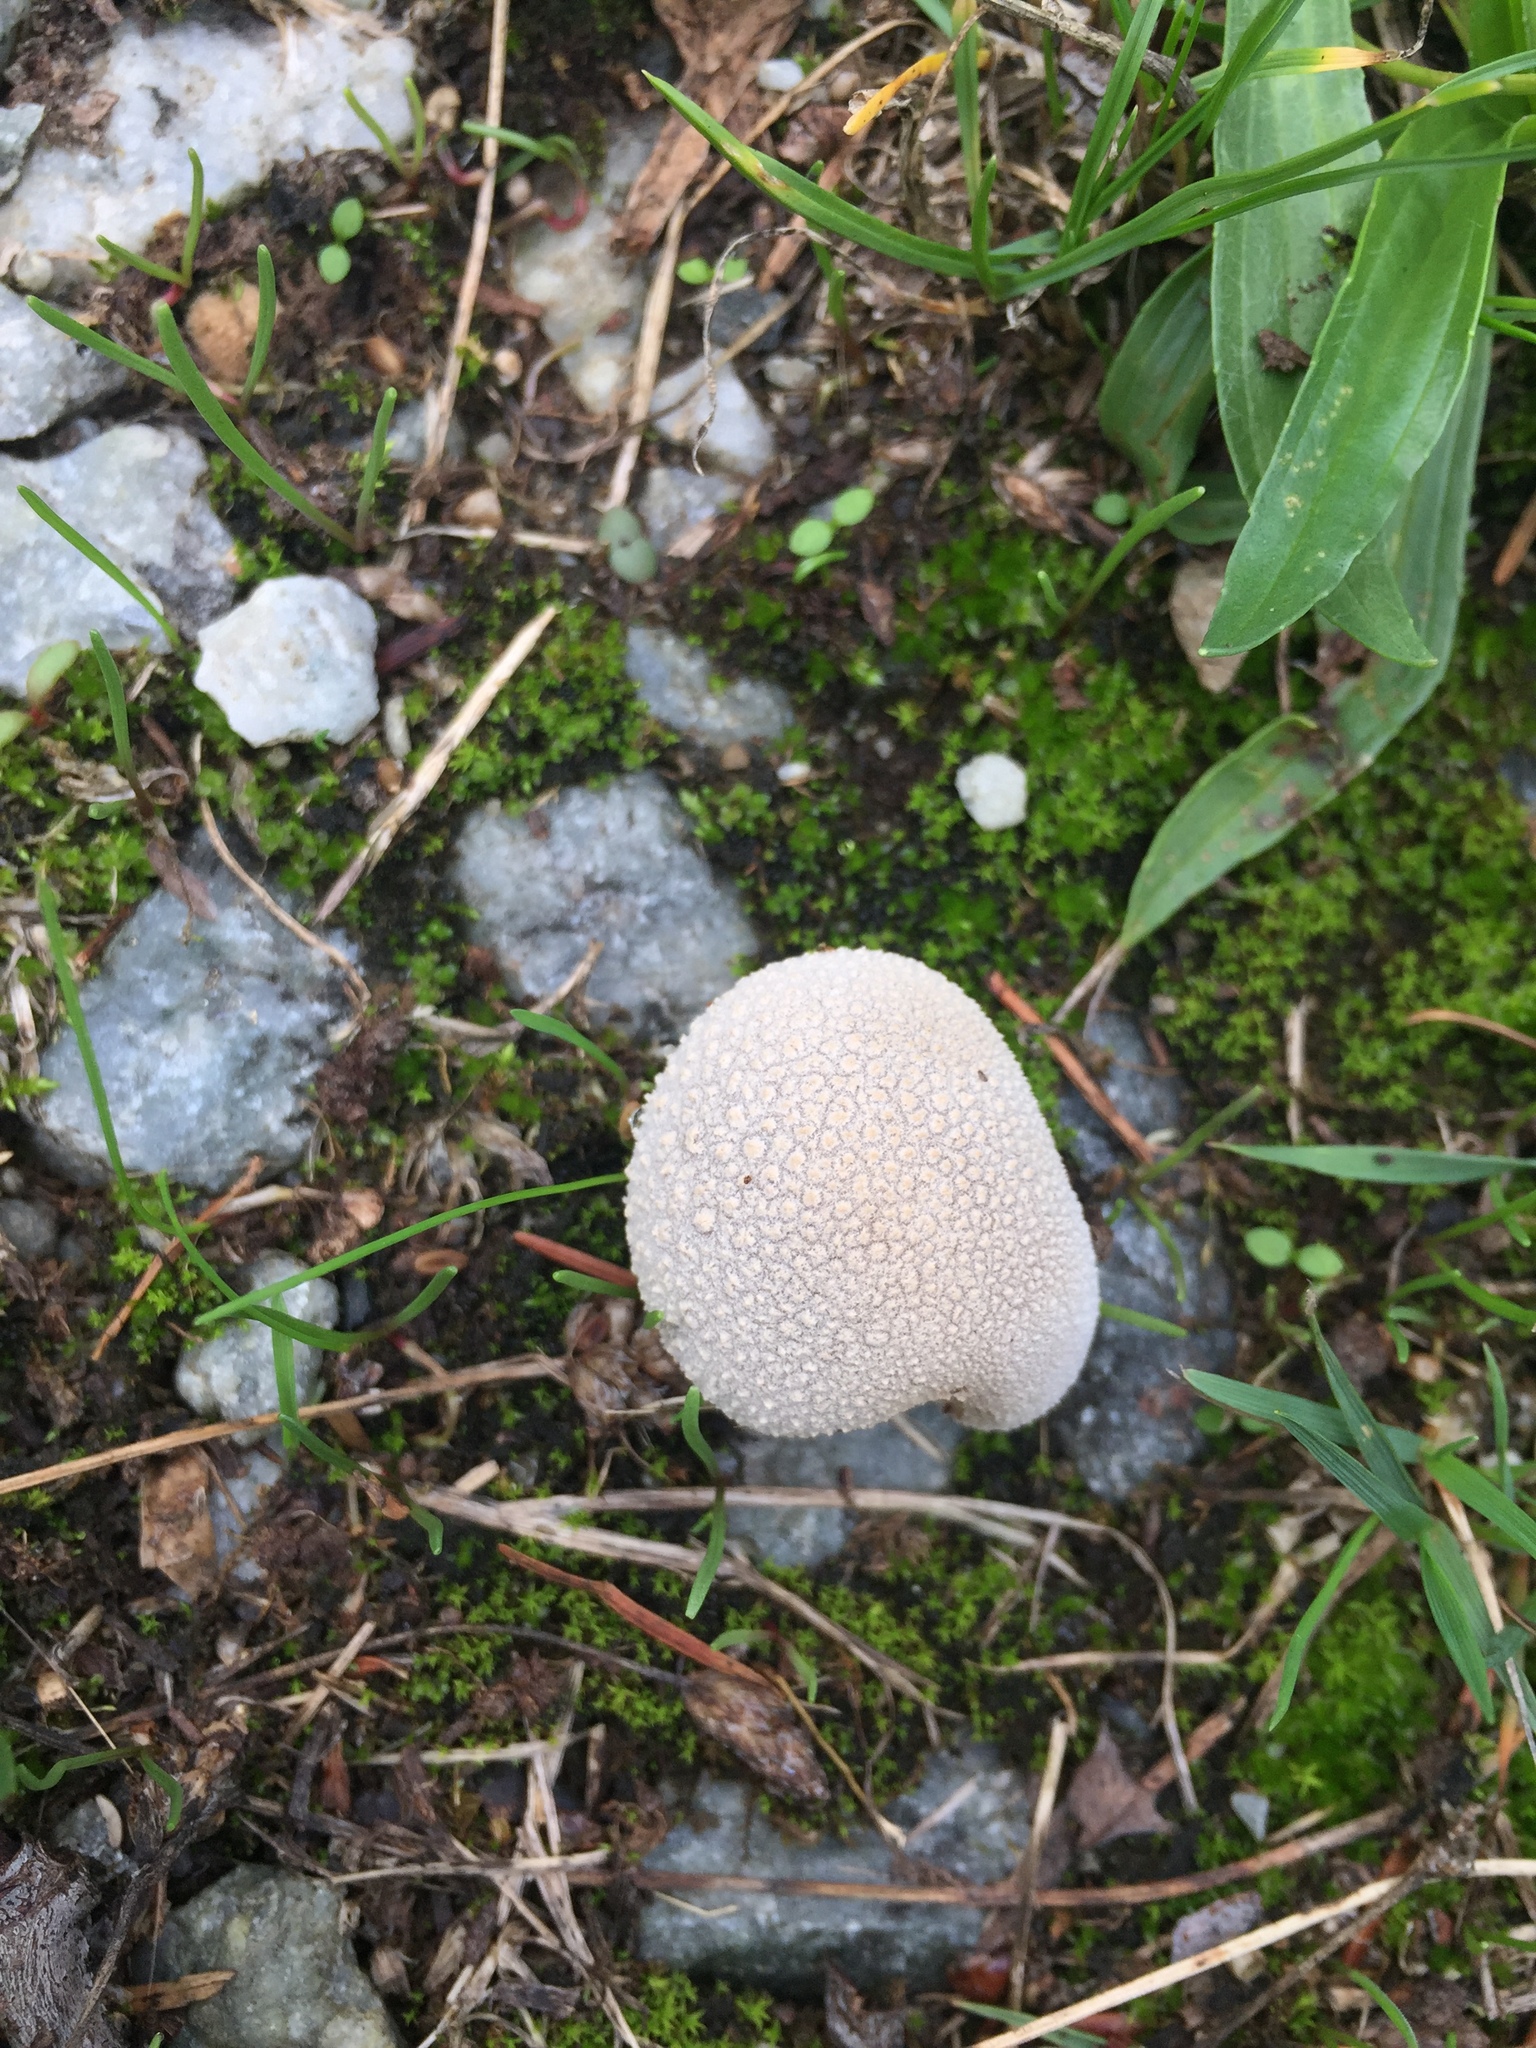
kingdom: Fungi
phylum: Basidiomycota
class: Agaricomycetes
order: Agaricales
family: Lycoperdaceae
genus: Lycoperdon
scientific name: Lycoperdon perlatum
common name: Common puffball
